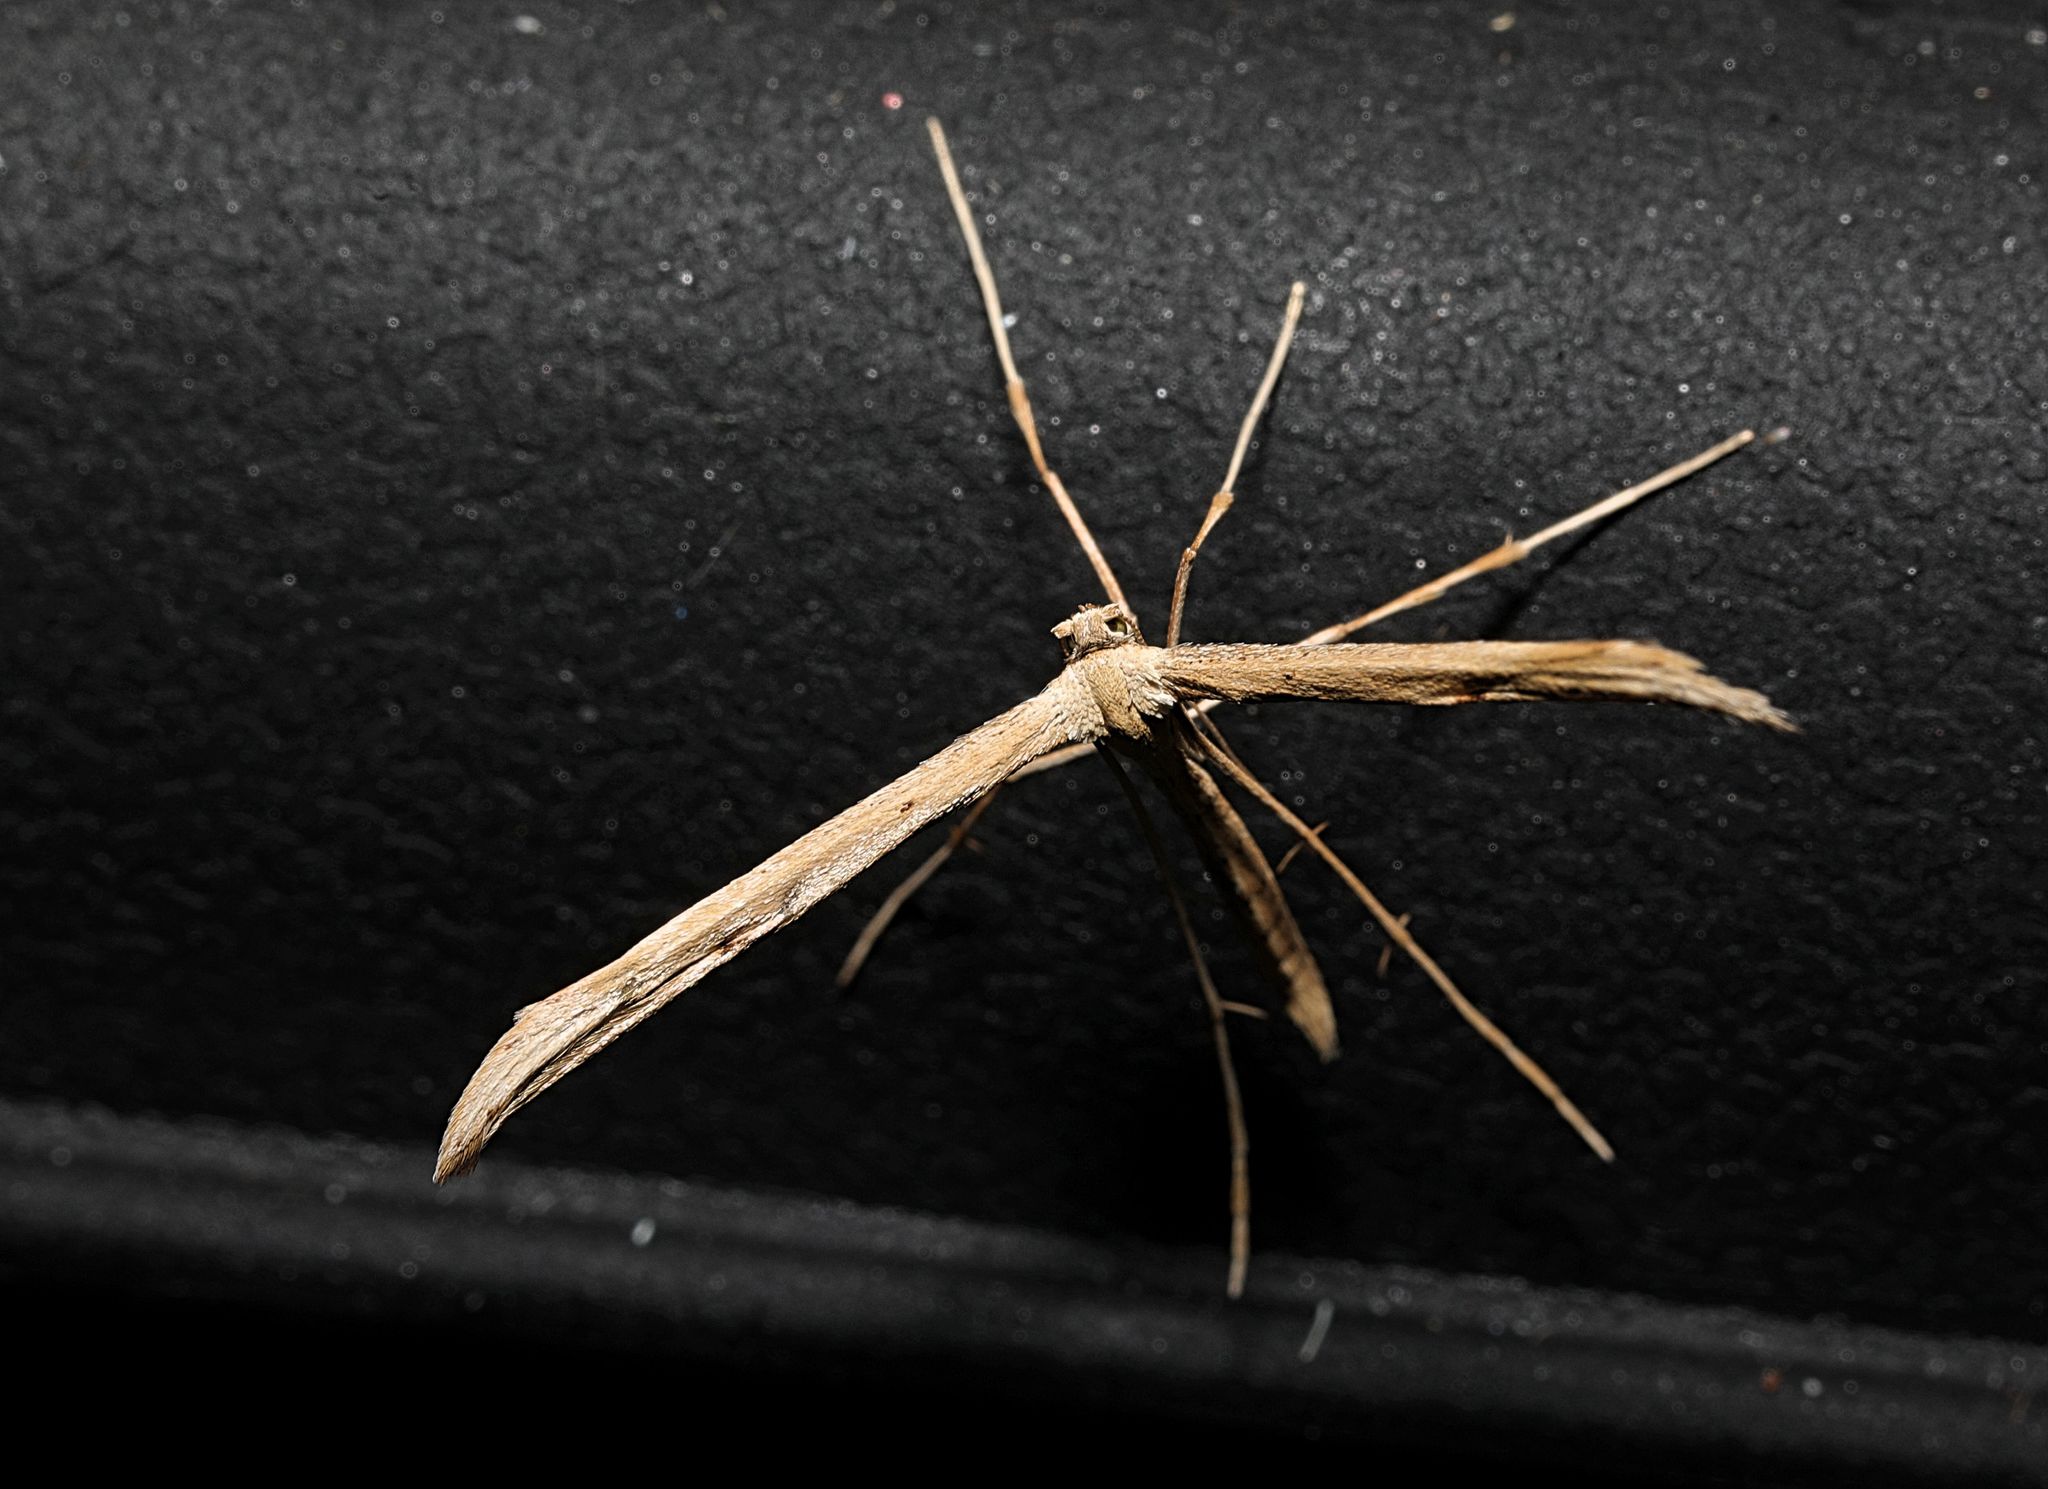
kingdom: Animalia
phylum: Arthropoda
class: Insecta
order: Lepidoptera
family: Pterophoridae
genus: Emmelina
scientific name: Emmelina monodactyla
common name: Common plume
